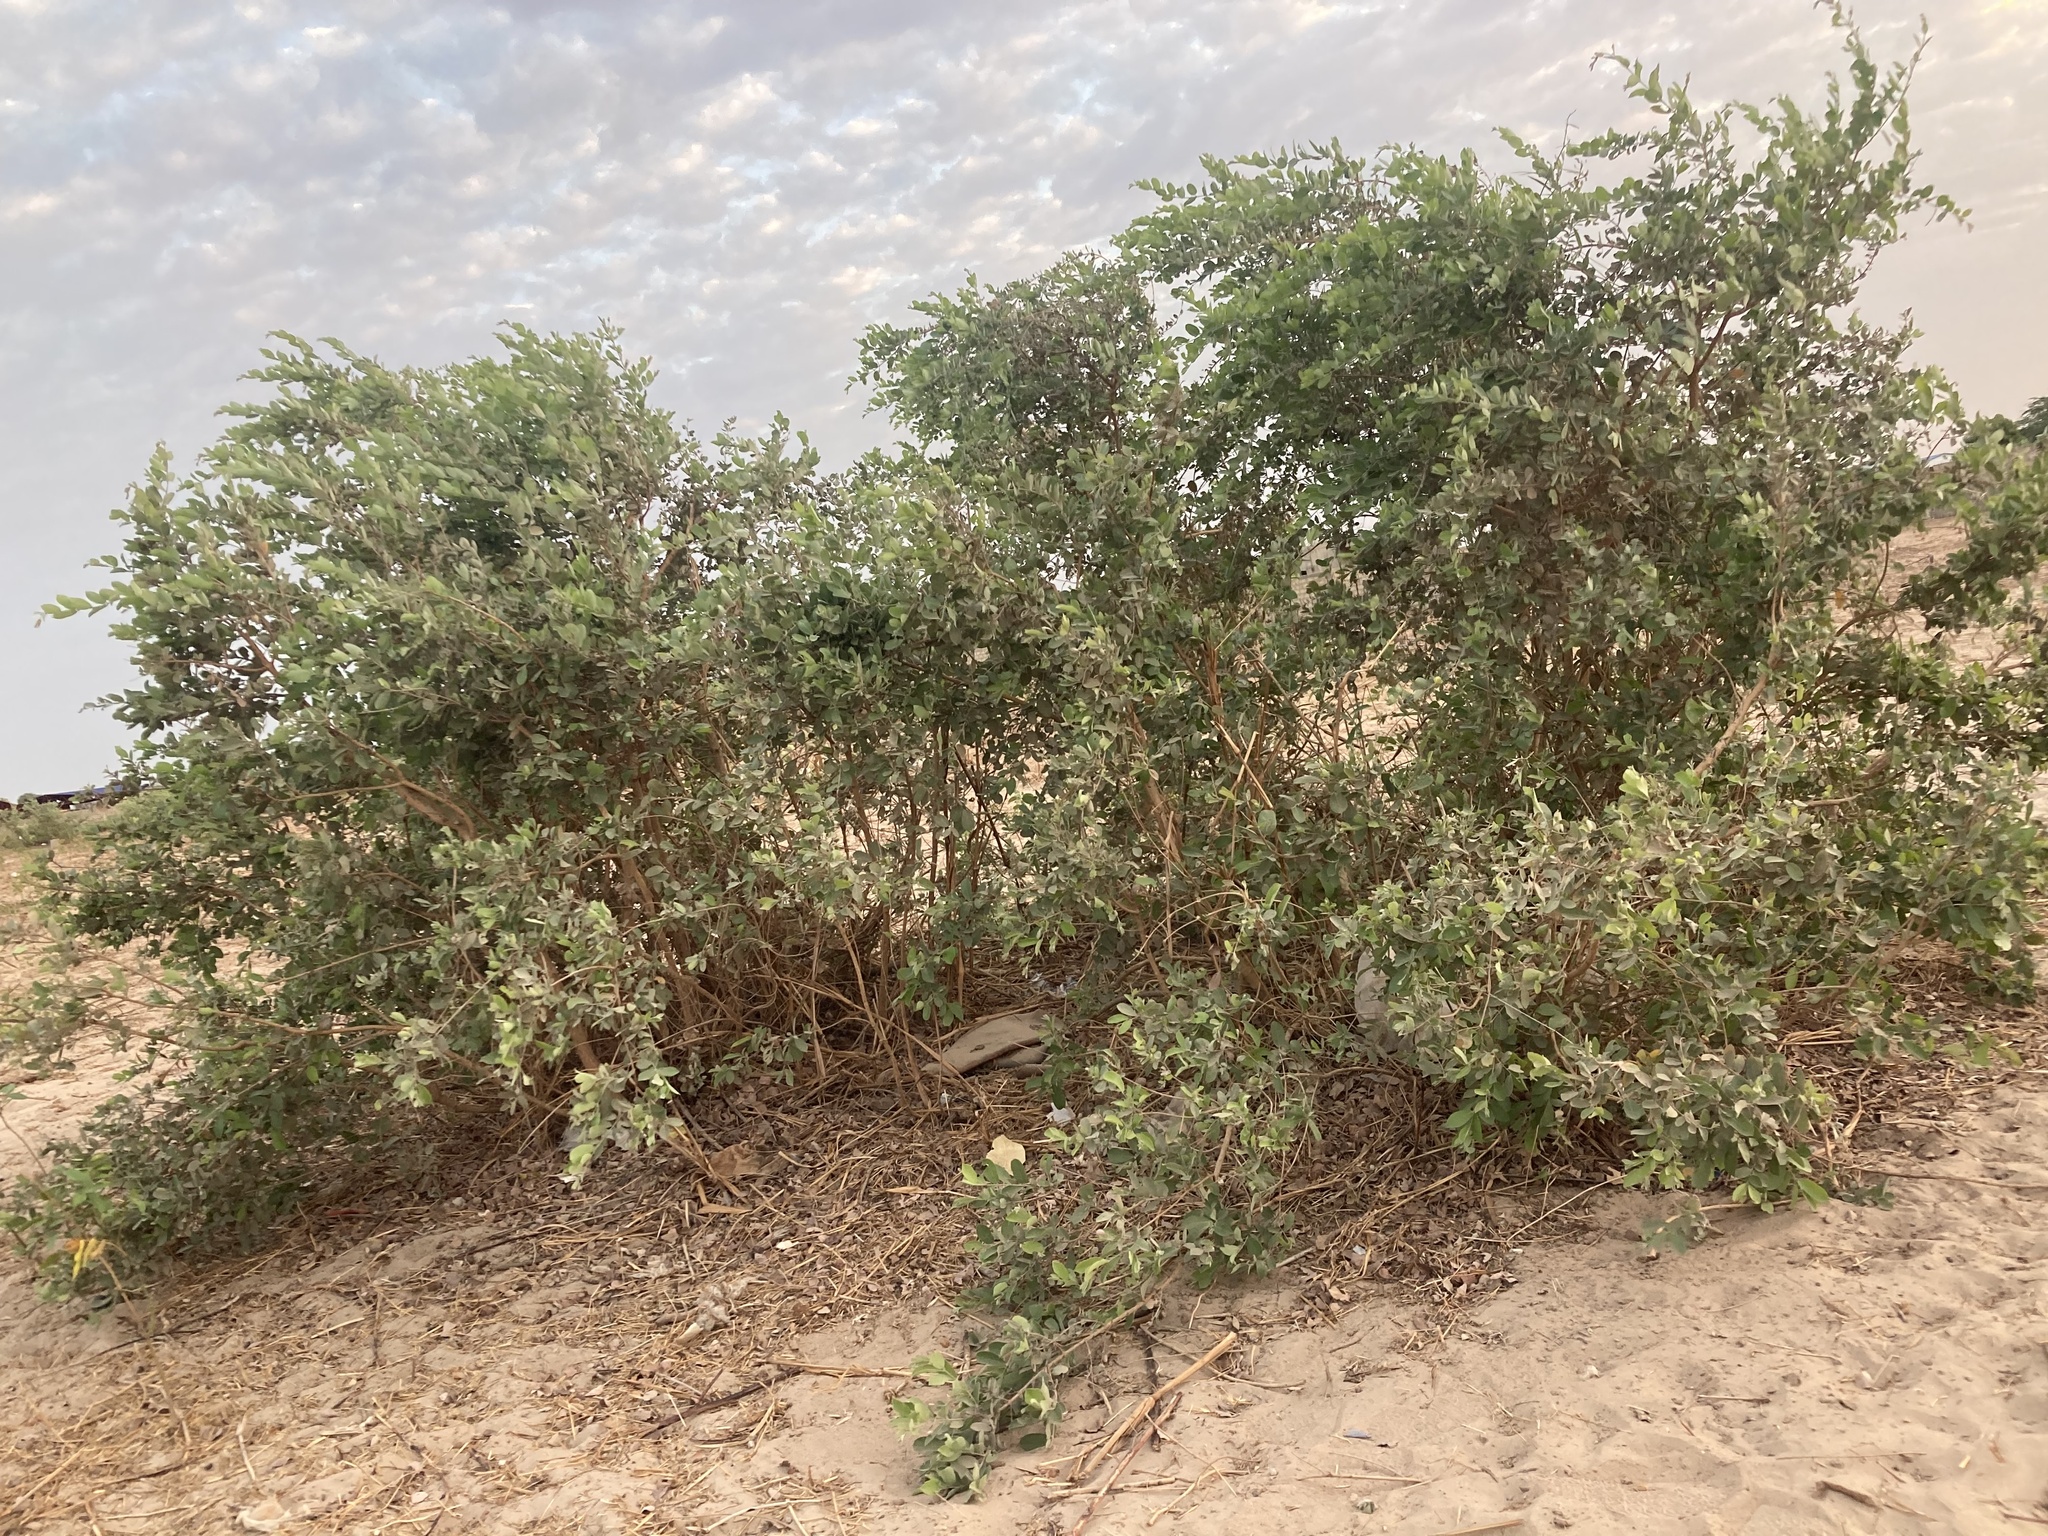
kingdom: Plantae
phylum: Tracheophyta
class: Magnoliopsida
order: Myrtales
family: Combretaceae
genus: Guiera
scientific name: Guiera senegalensis
